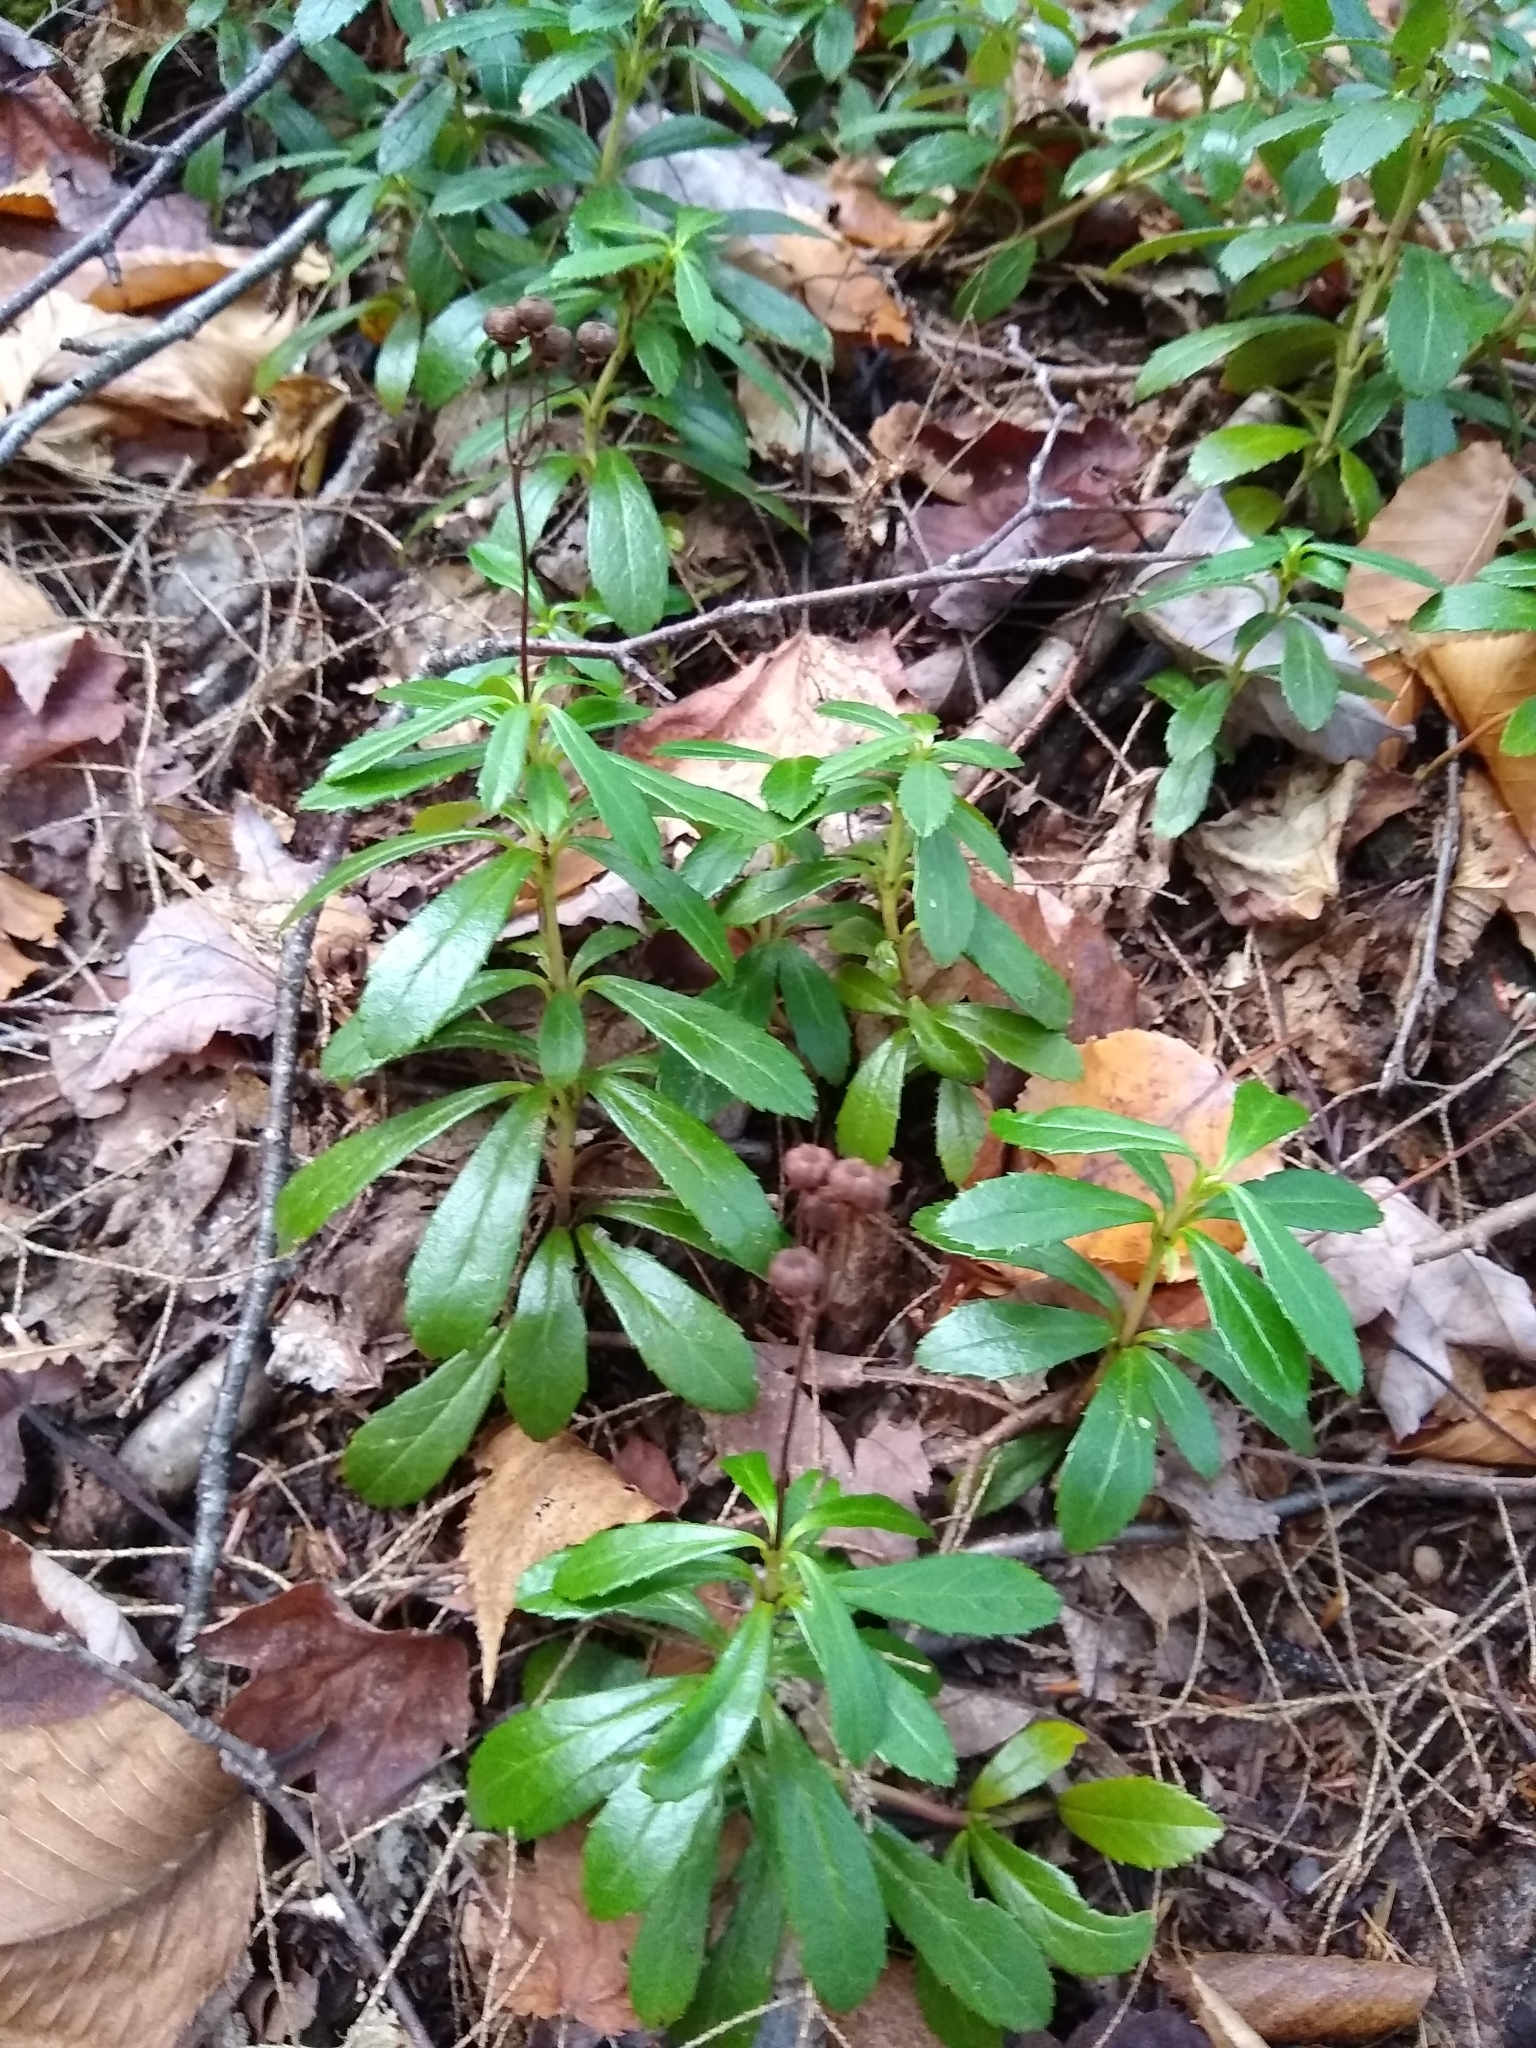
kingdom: Plantae
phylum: Tracheophyta
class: Magnoliopsida
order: Ericales
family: Ericaceae
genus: Chimaphila
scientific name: Chimaphila umbellata
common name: Pipsissewa
